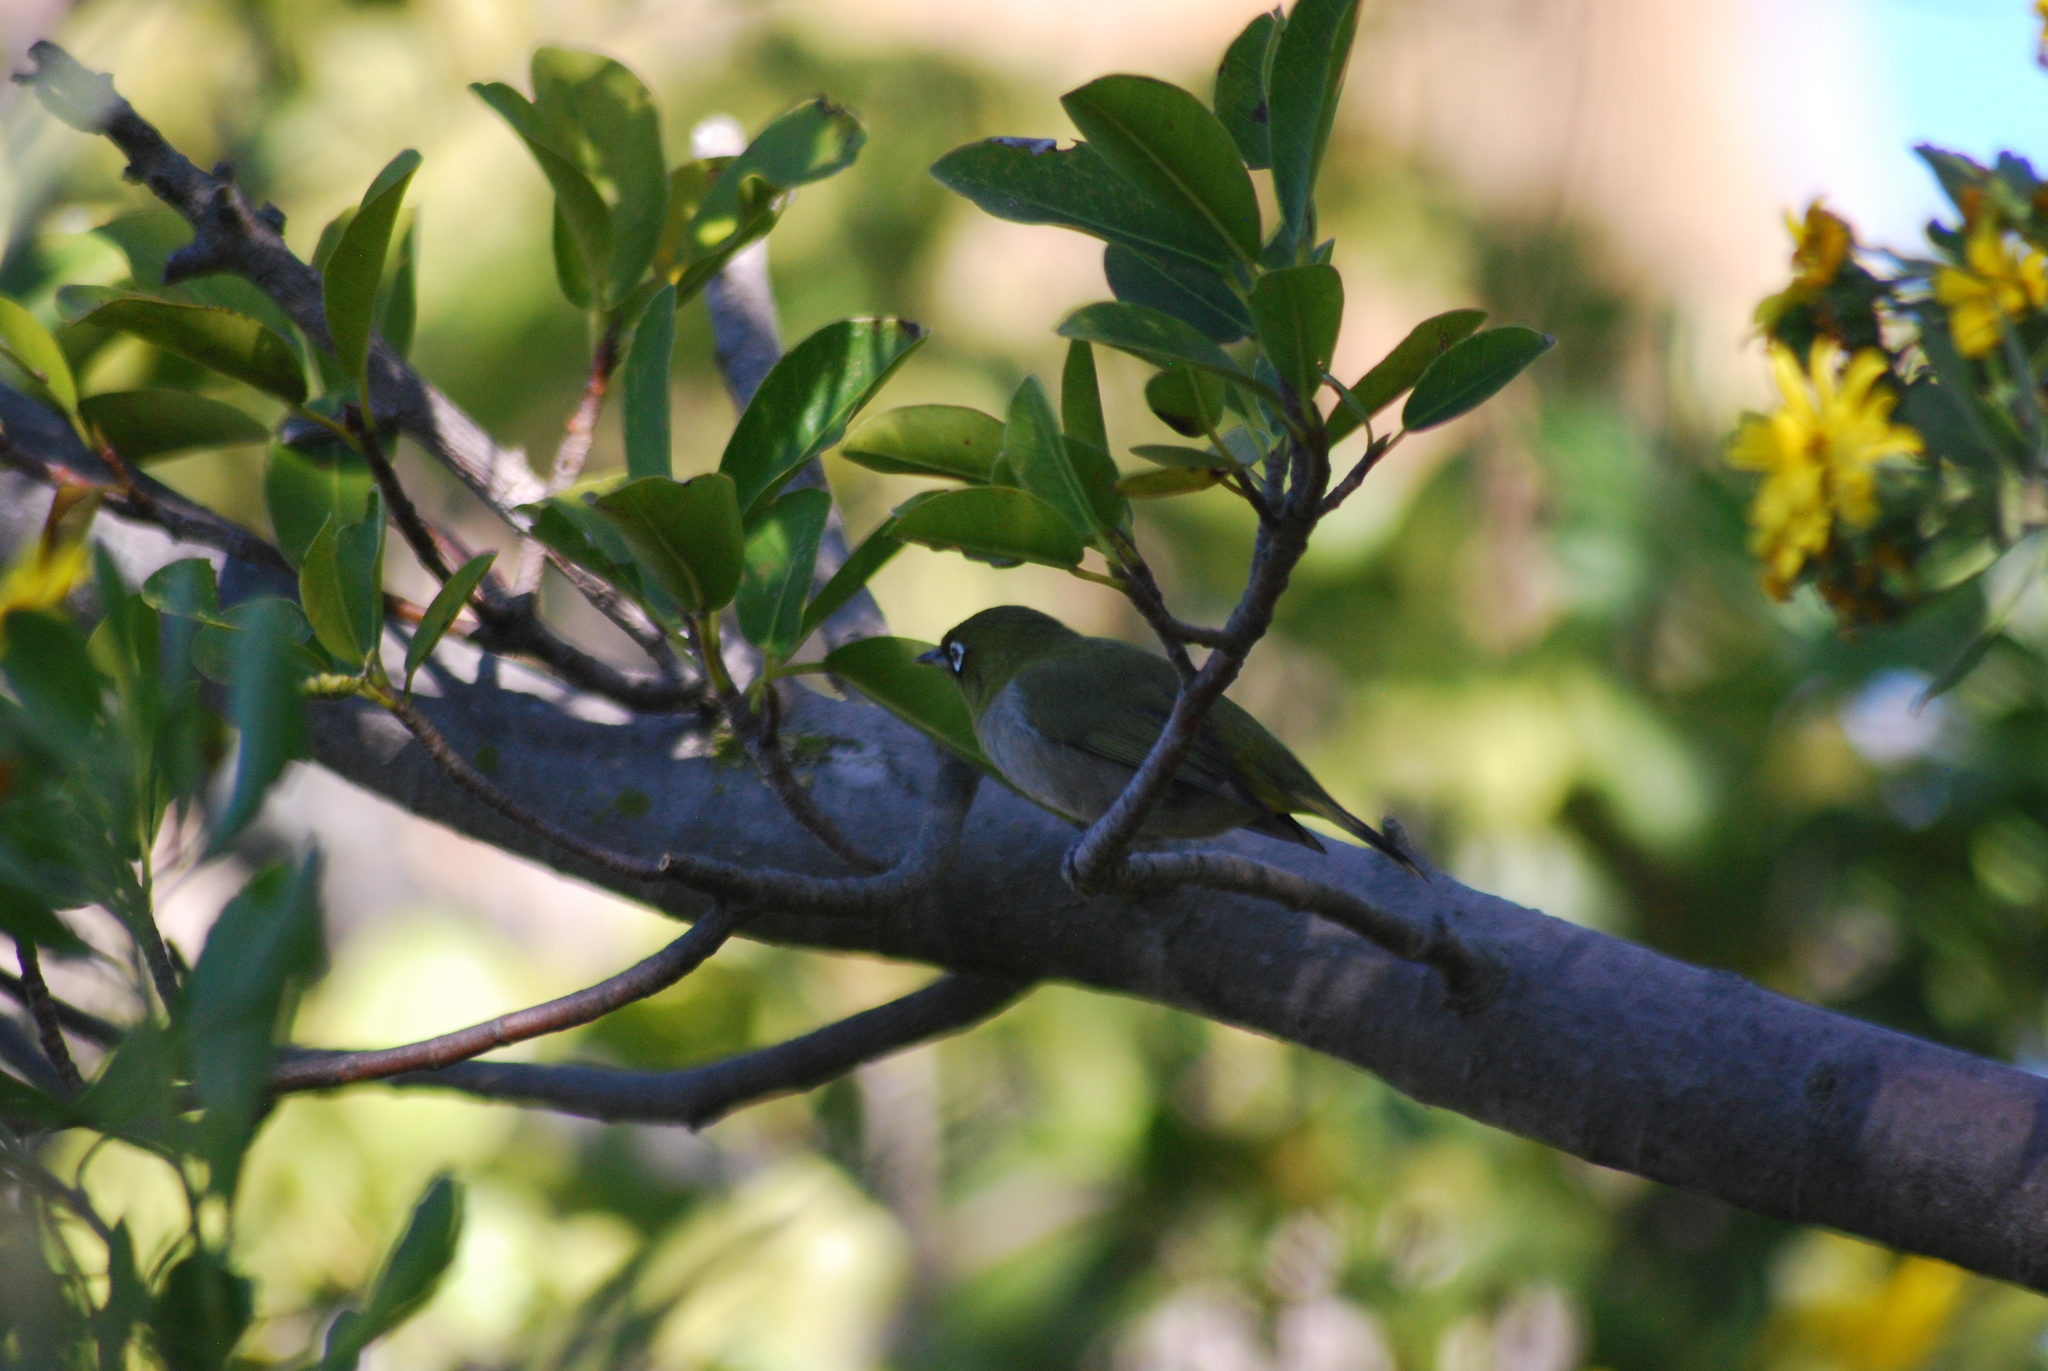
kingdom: Animalia
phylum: Chordata
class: Aves
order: Passeriformes
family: Zosteropidae
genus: Zosterops
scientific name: Zosterops virens
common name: Cape white-eye
